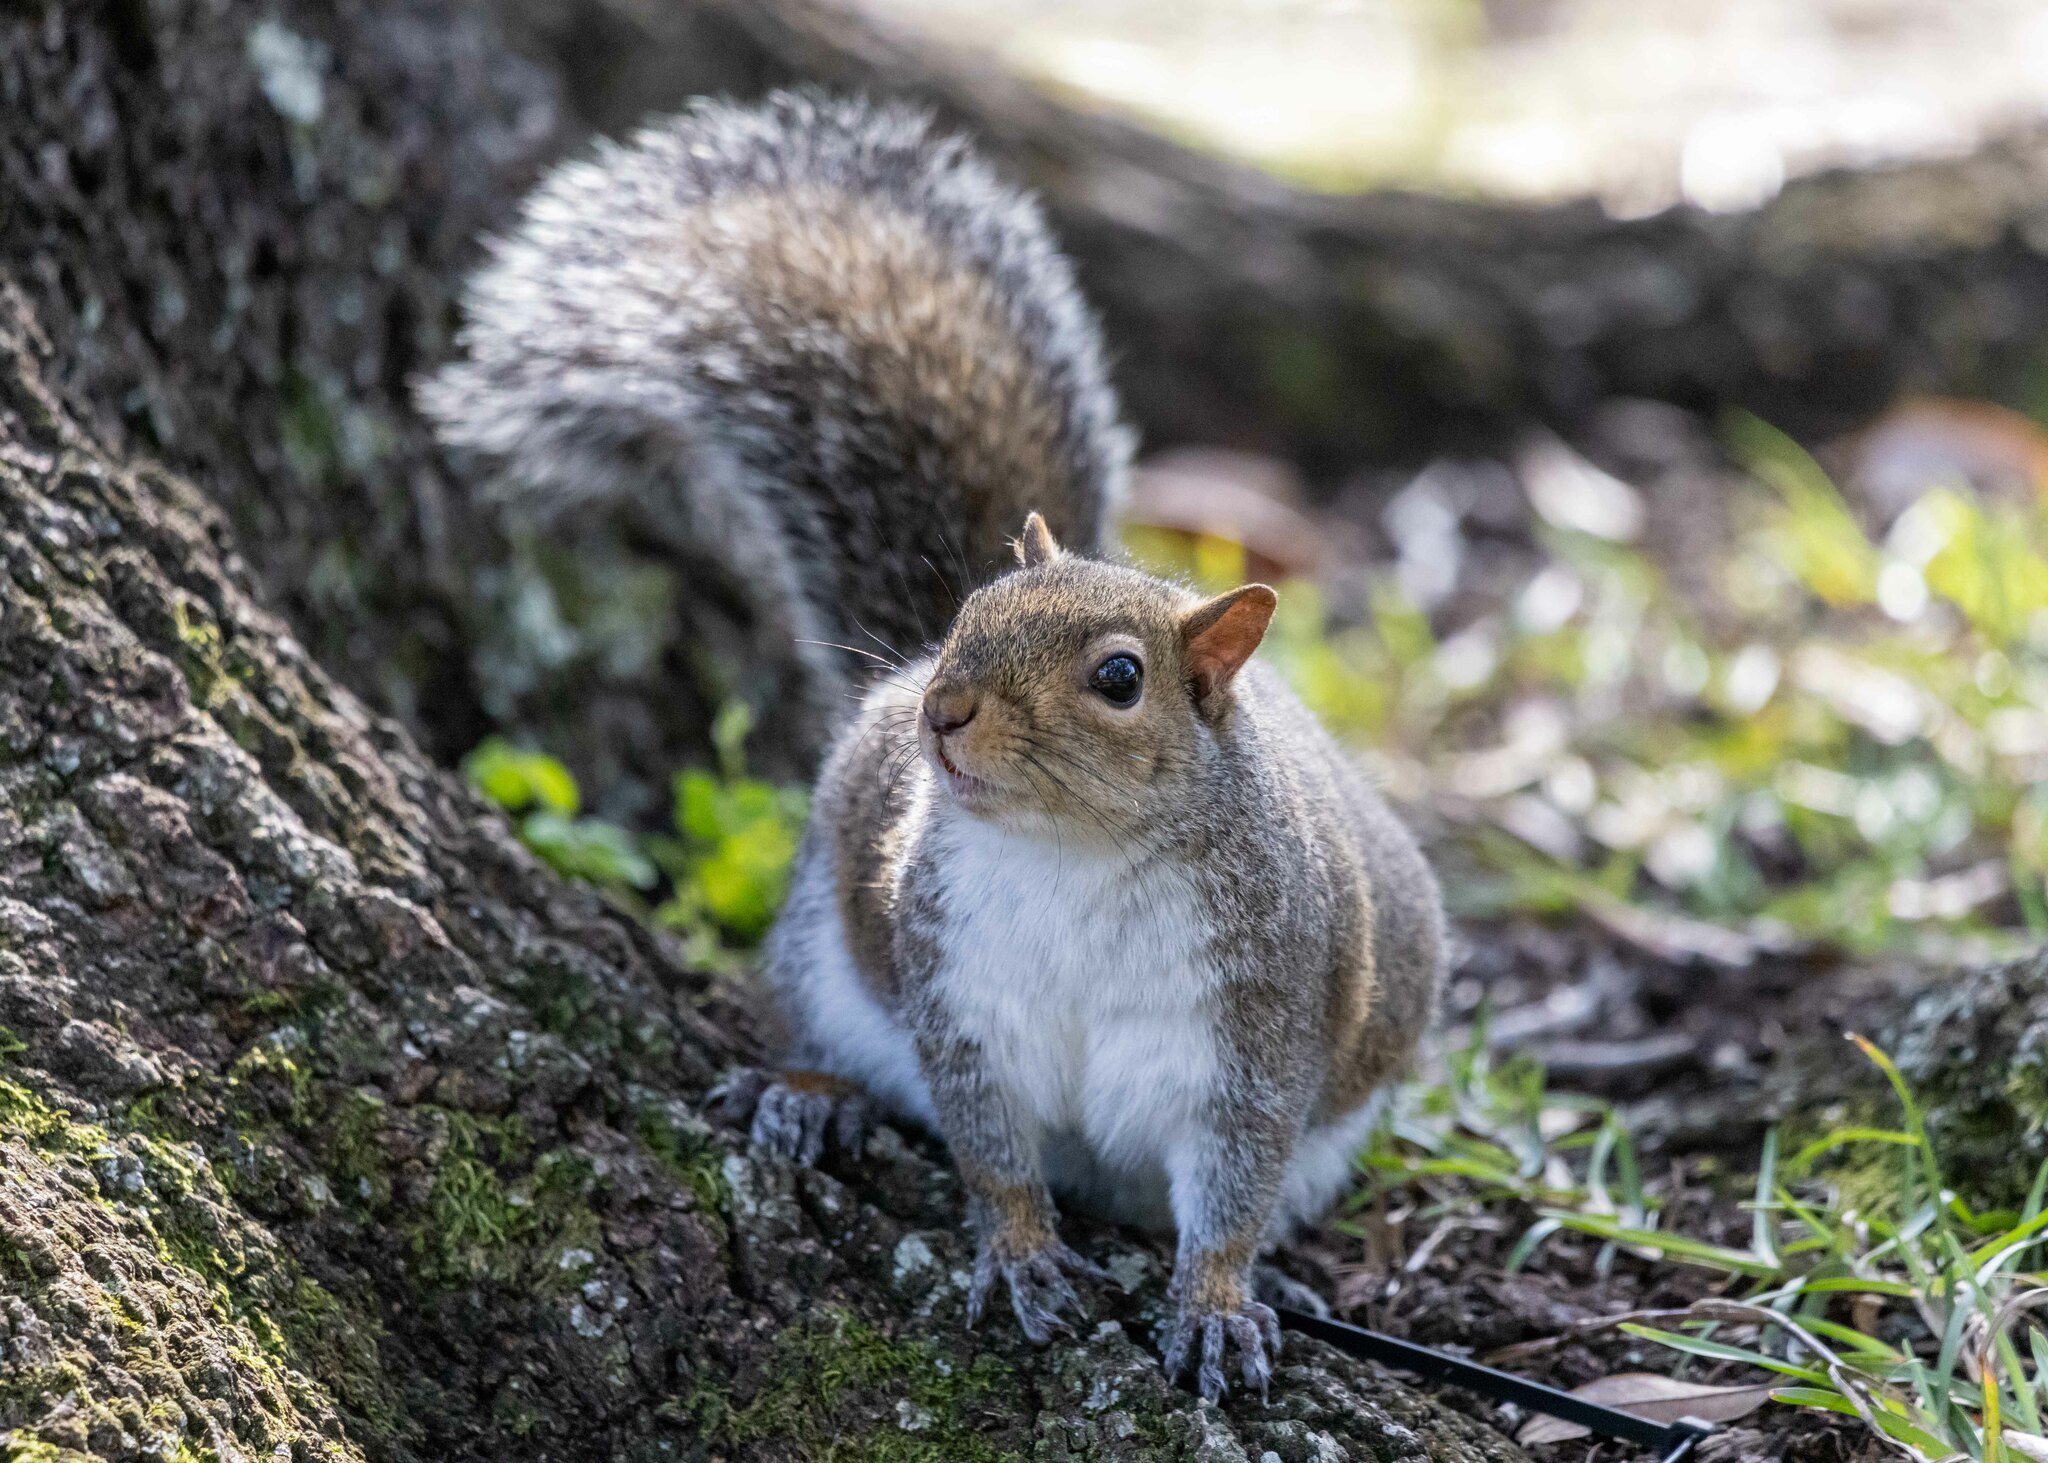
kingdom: Animalia
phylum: Chordata
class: Mammalia
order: Rodentia
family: Sciuridae
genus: Sciurus
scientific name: Sciurus carolinensis
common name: Eastern gray squirrel
